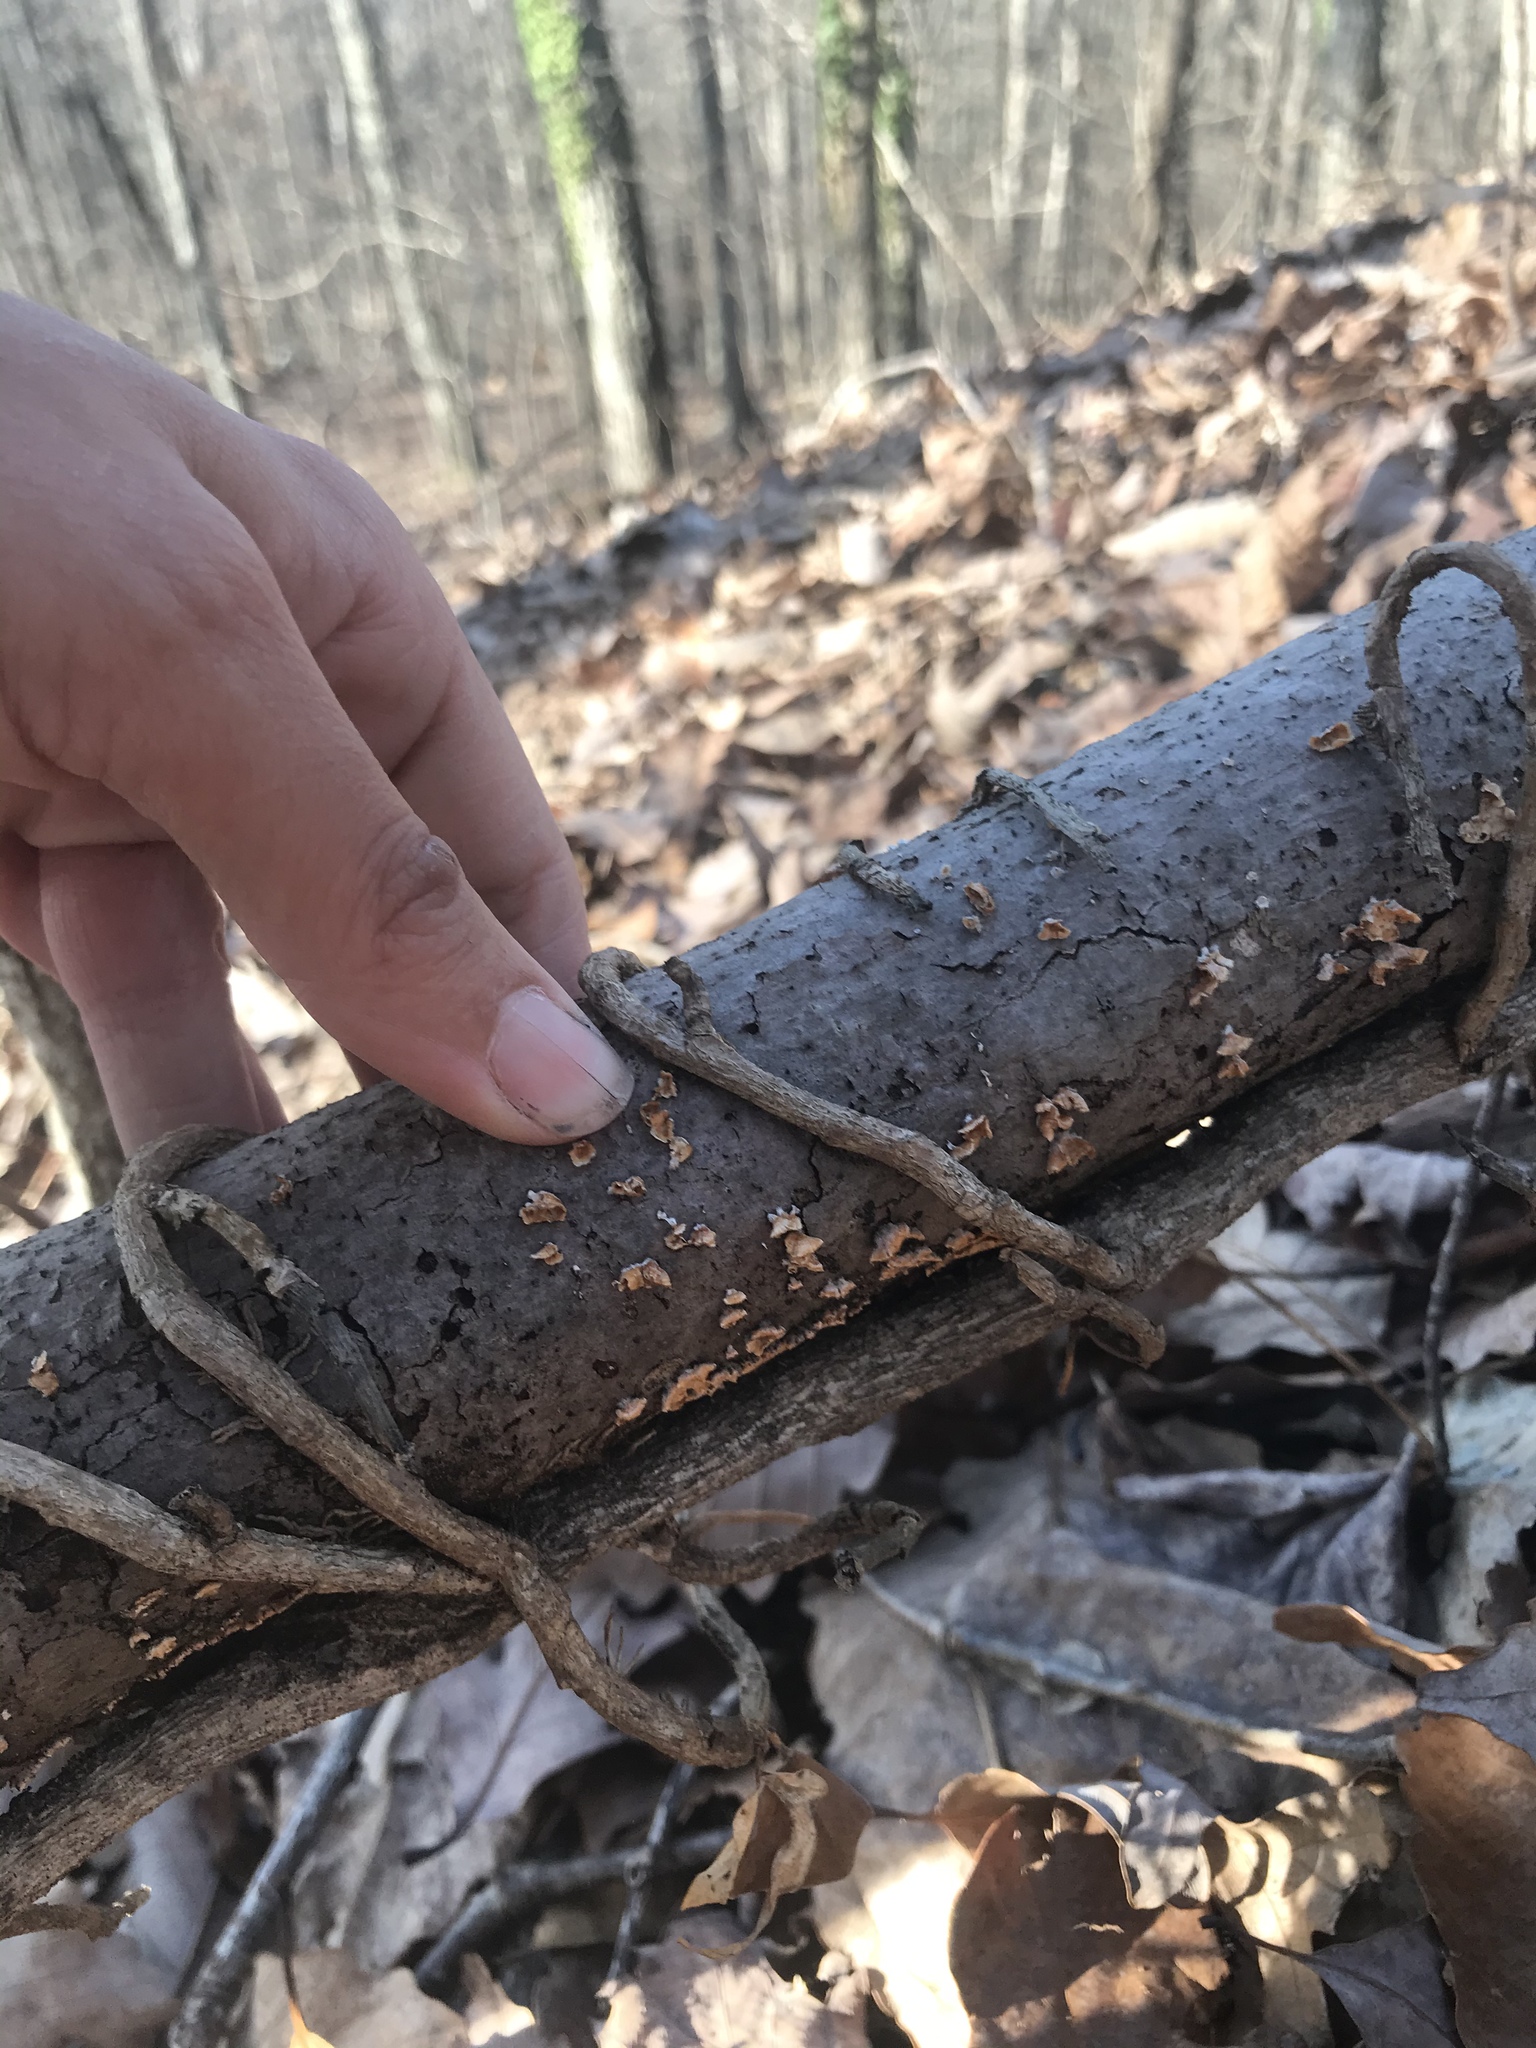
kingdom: Fungi
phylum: Basidiomycota
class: Agaricomycetes
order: Russulales
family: Stereaceae
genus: Stereum
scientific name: Stereum complicatum
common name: Crowded parchment
